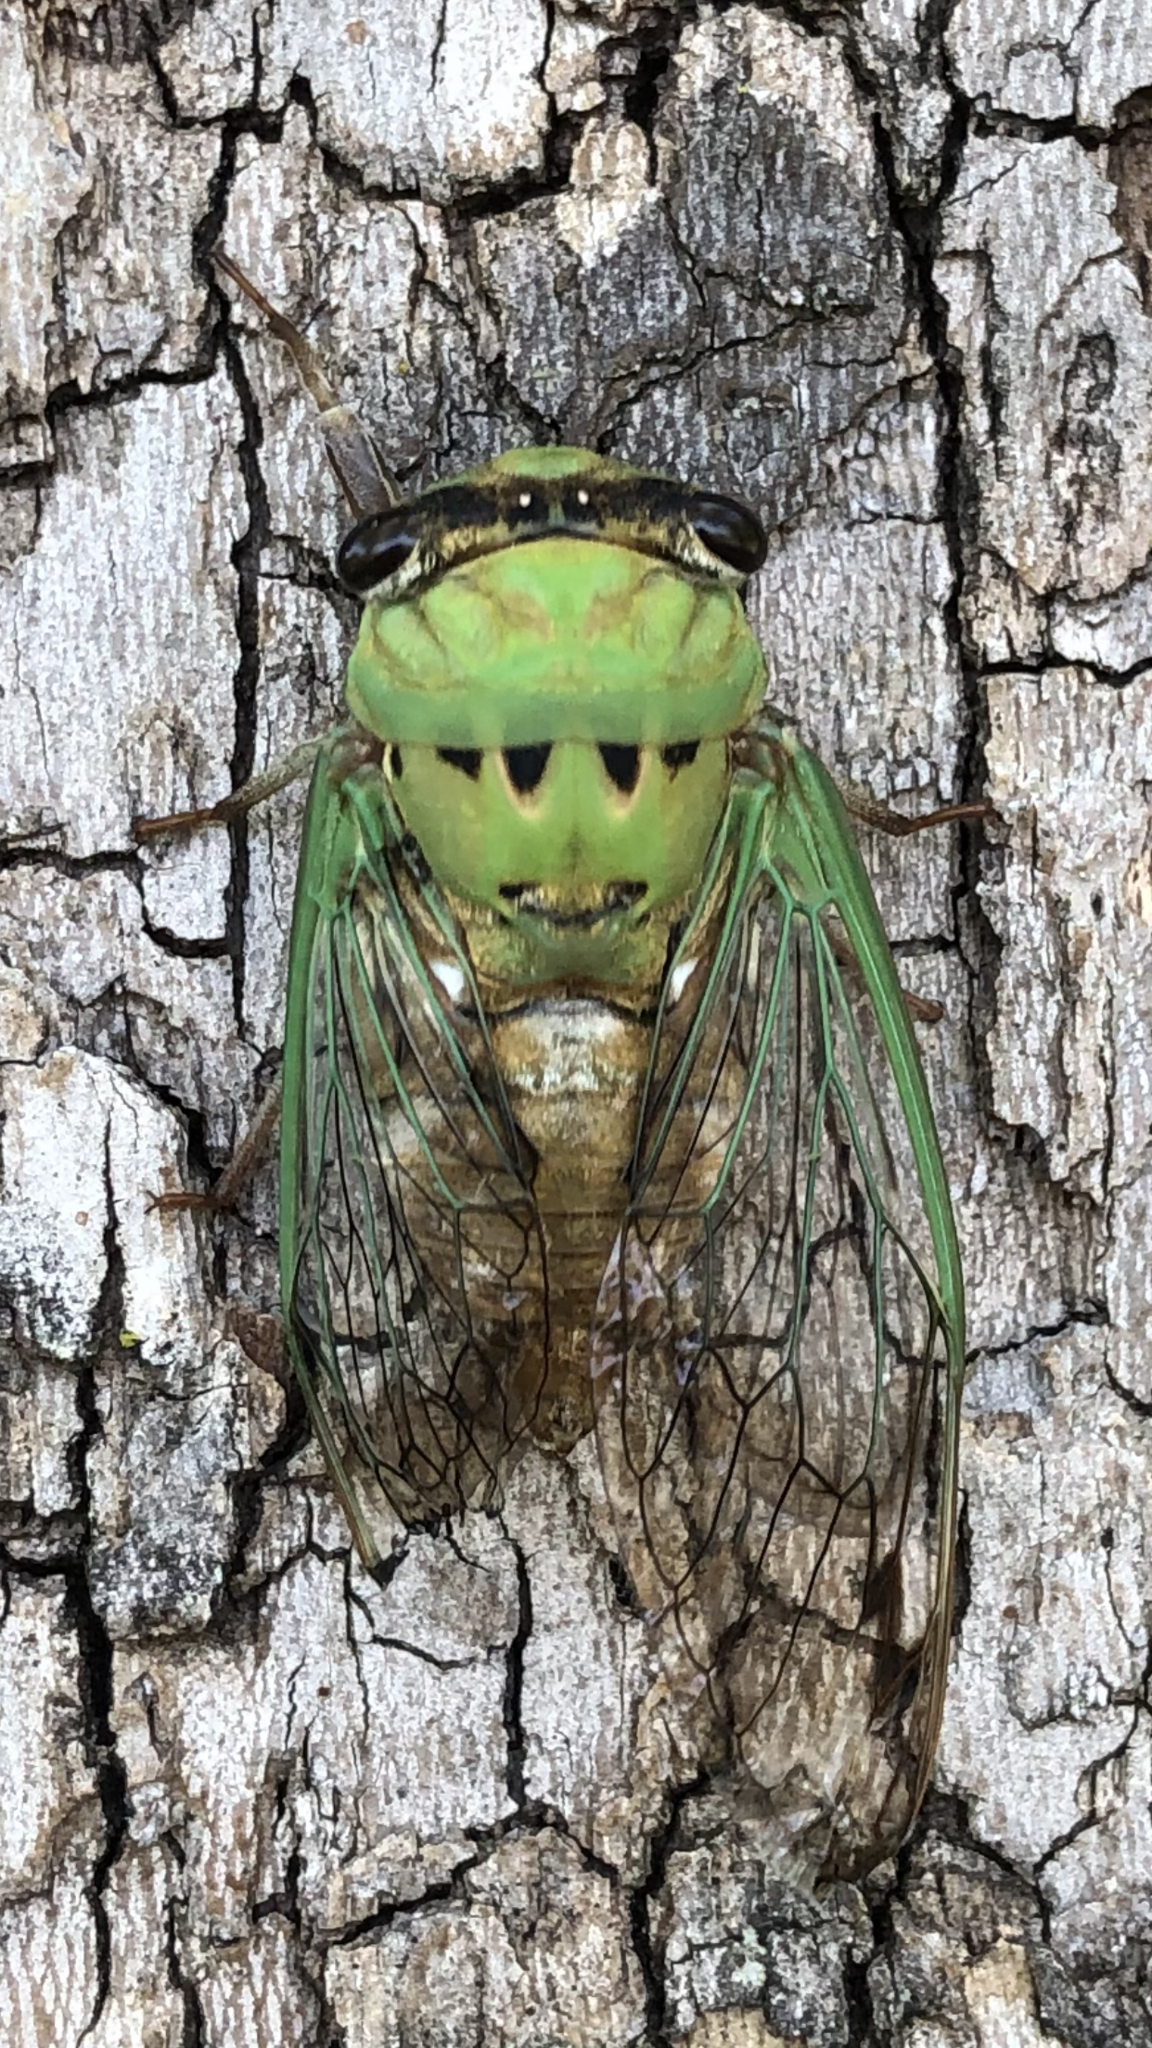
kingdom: Animalia
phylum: Arthropoda
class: Insecta
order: Hemiptera
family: Cicadidae
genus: Neotibicen
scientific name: Neotibicen superbus
